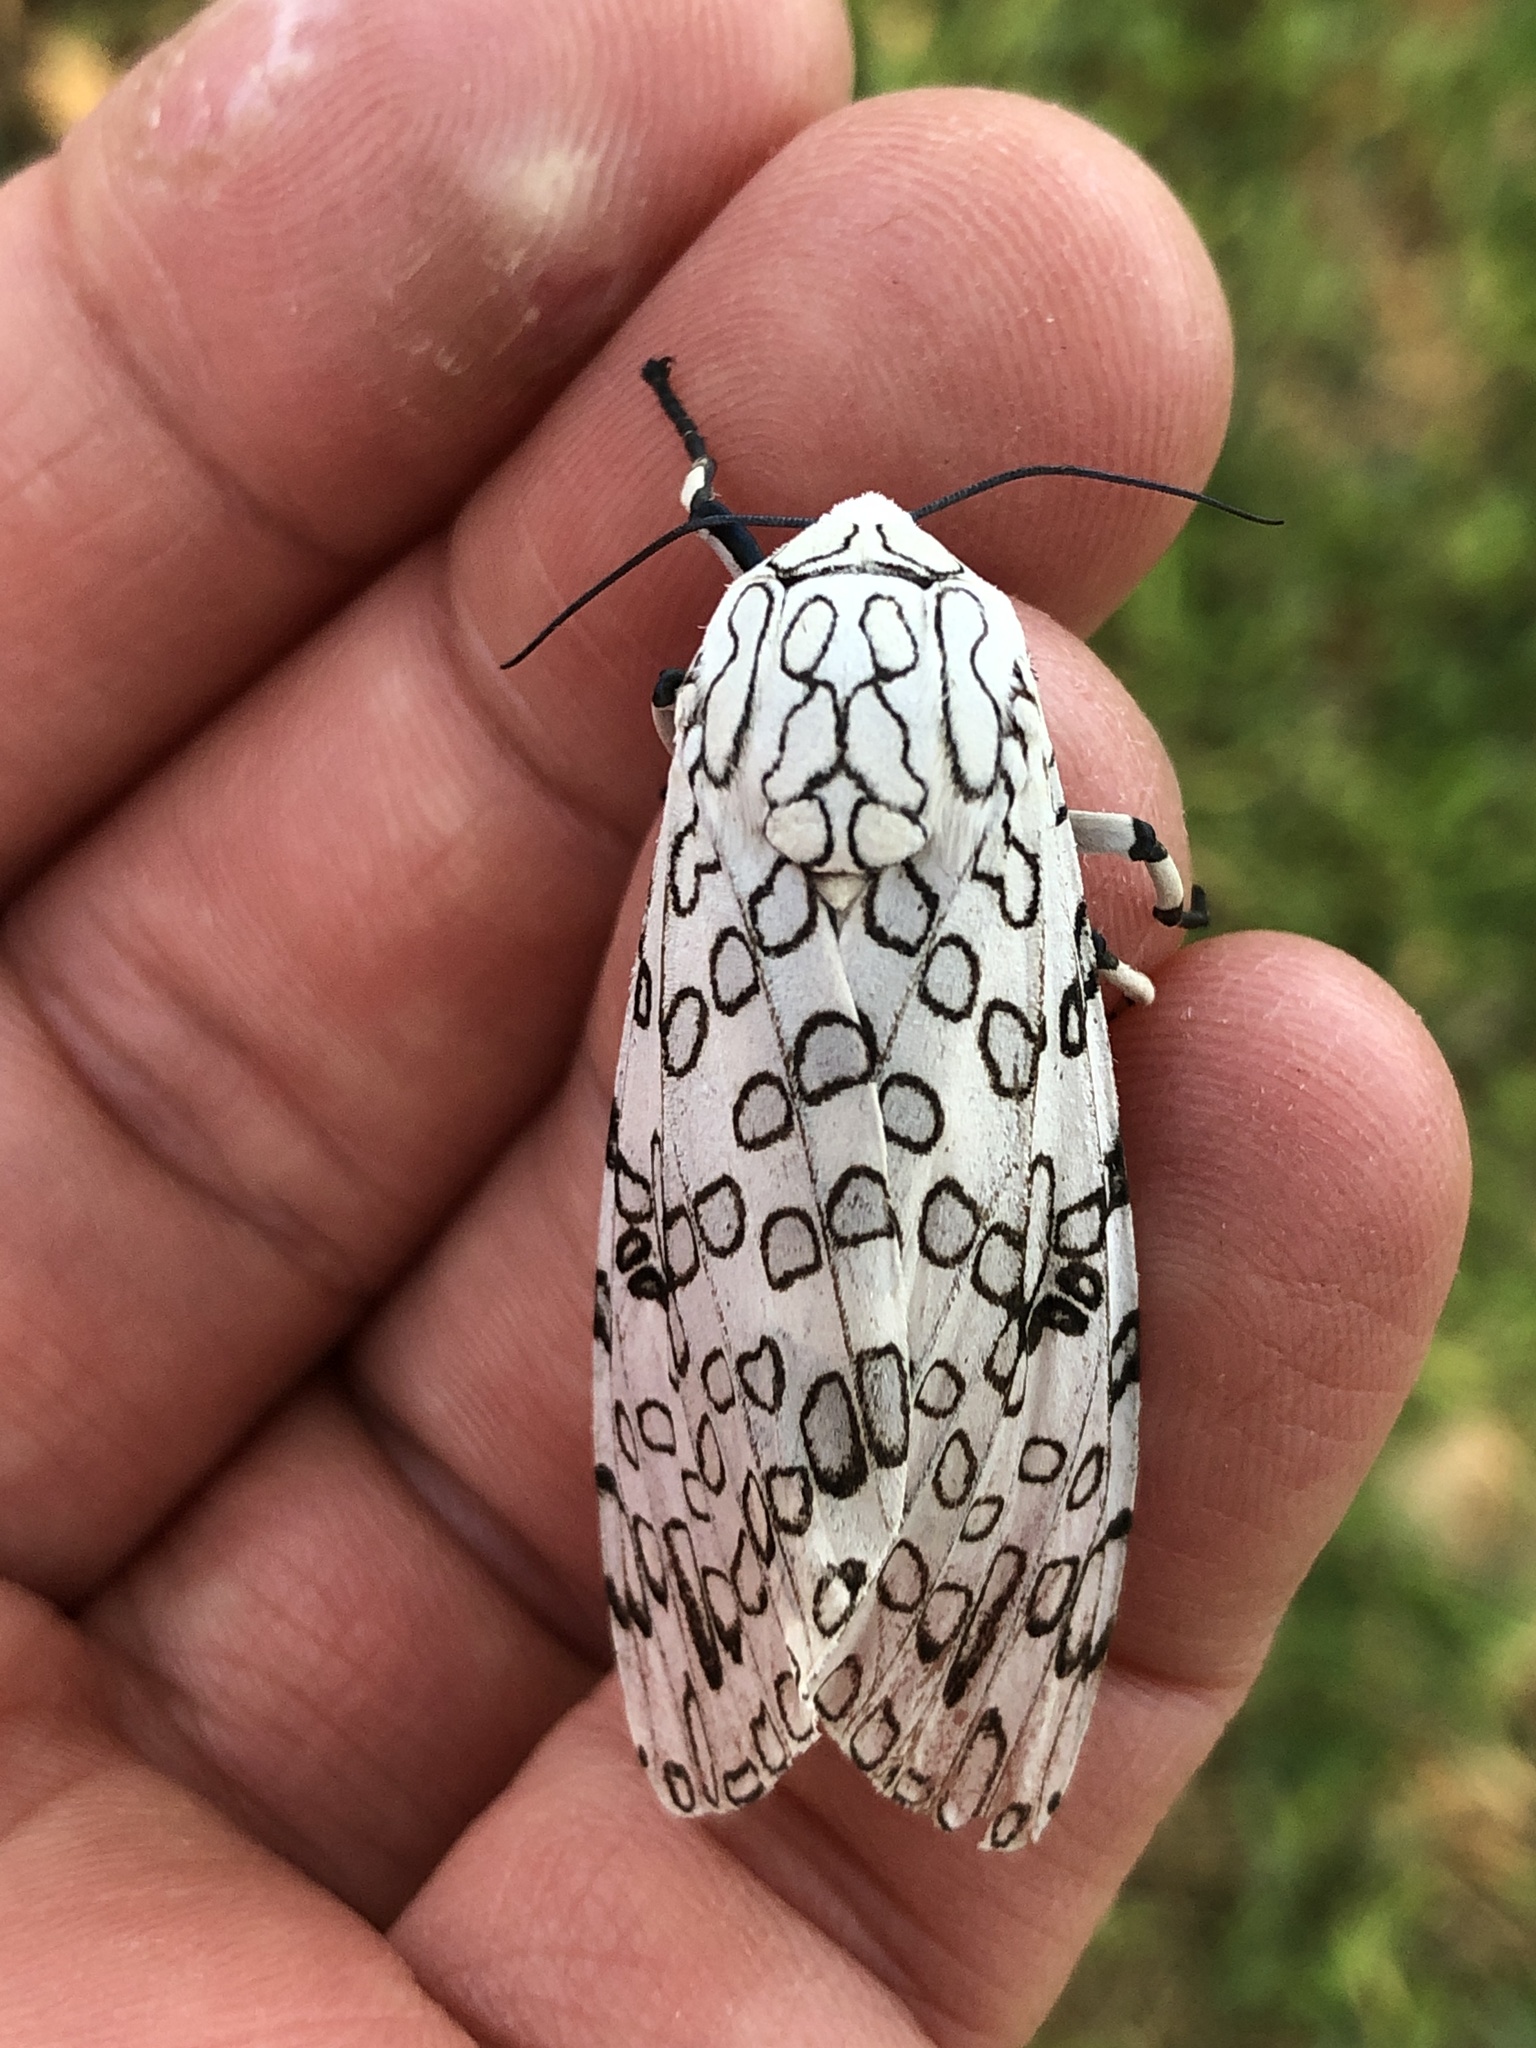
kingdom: Animalia
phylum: Arthropoda
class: Insecta
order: Lepidoptera
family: Erebidae
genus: Hypercompe
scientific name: Hypercompe scribonia
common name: Giant leopard moth
